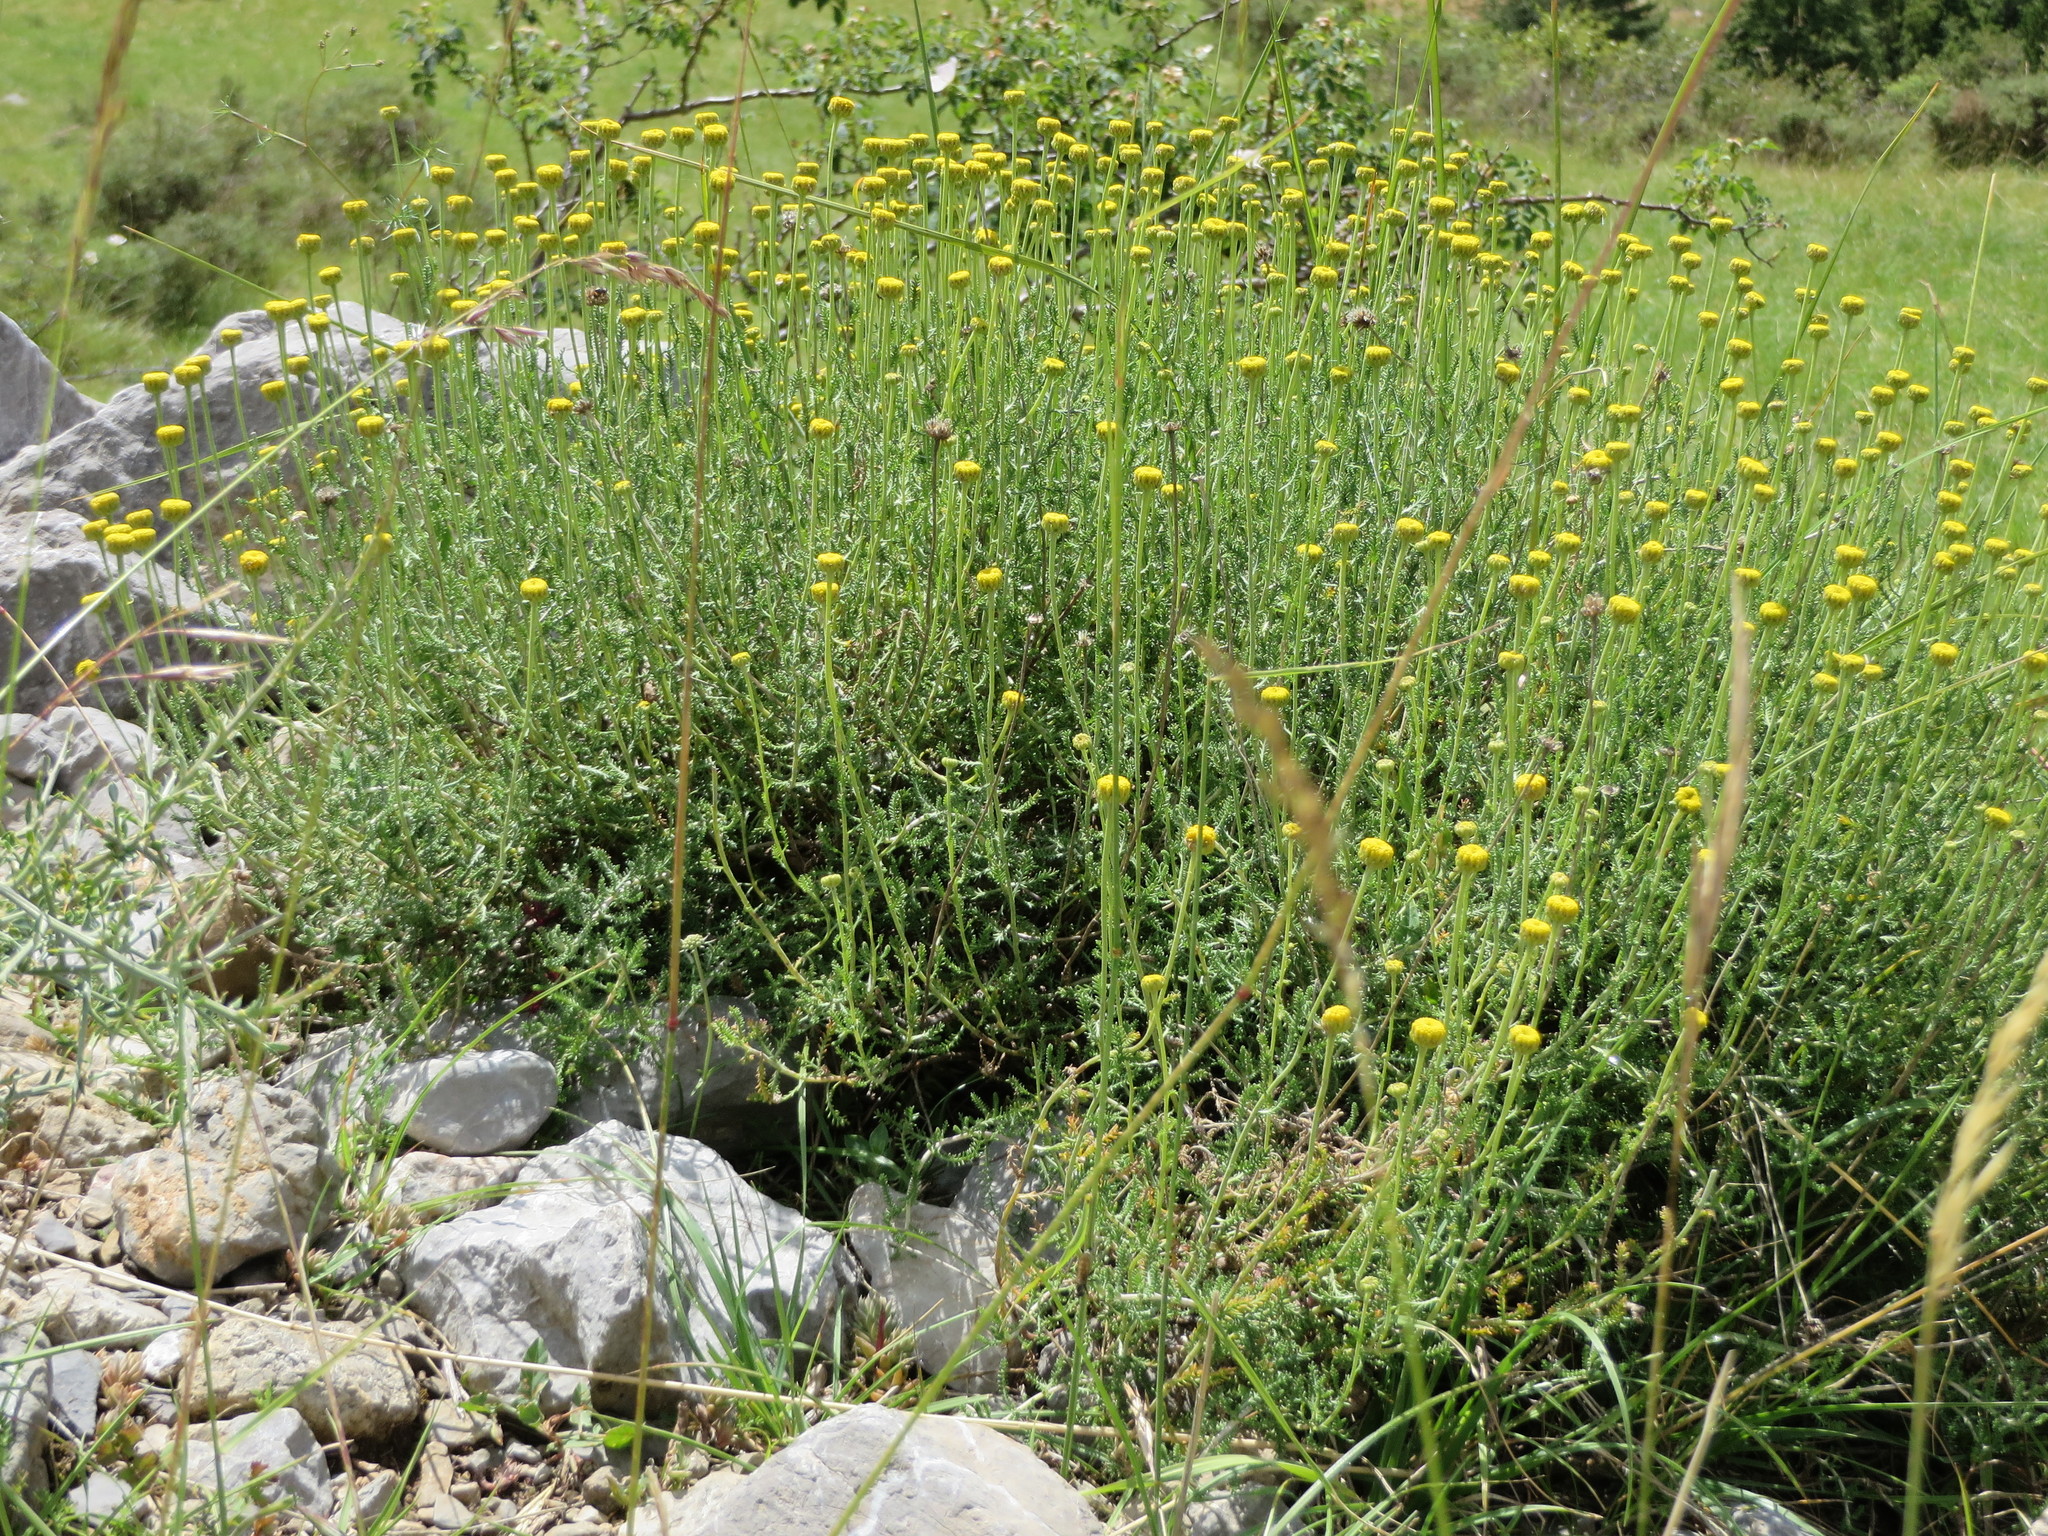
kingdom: Plantae
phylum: Tracheophyta
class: Magnoliopsida
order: Asterales
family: Asteraceae
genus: Santolina
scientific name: Santolina chamaecyparissus
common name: Lavender-cotton
